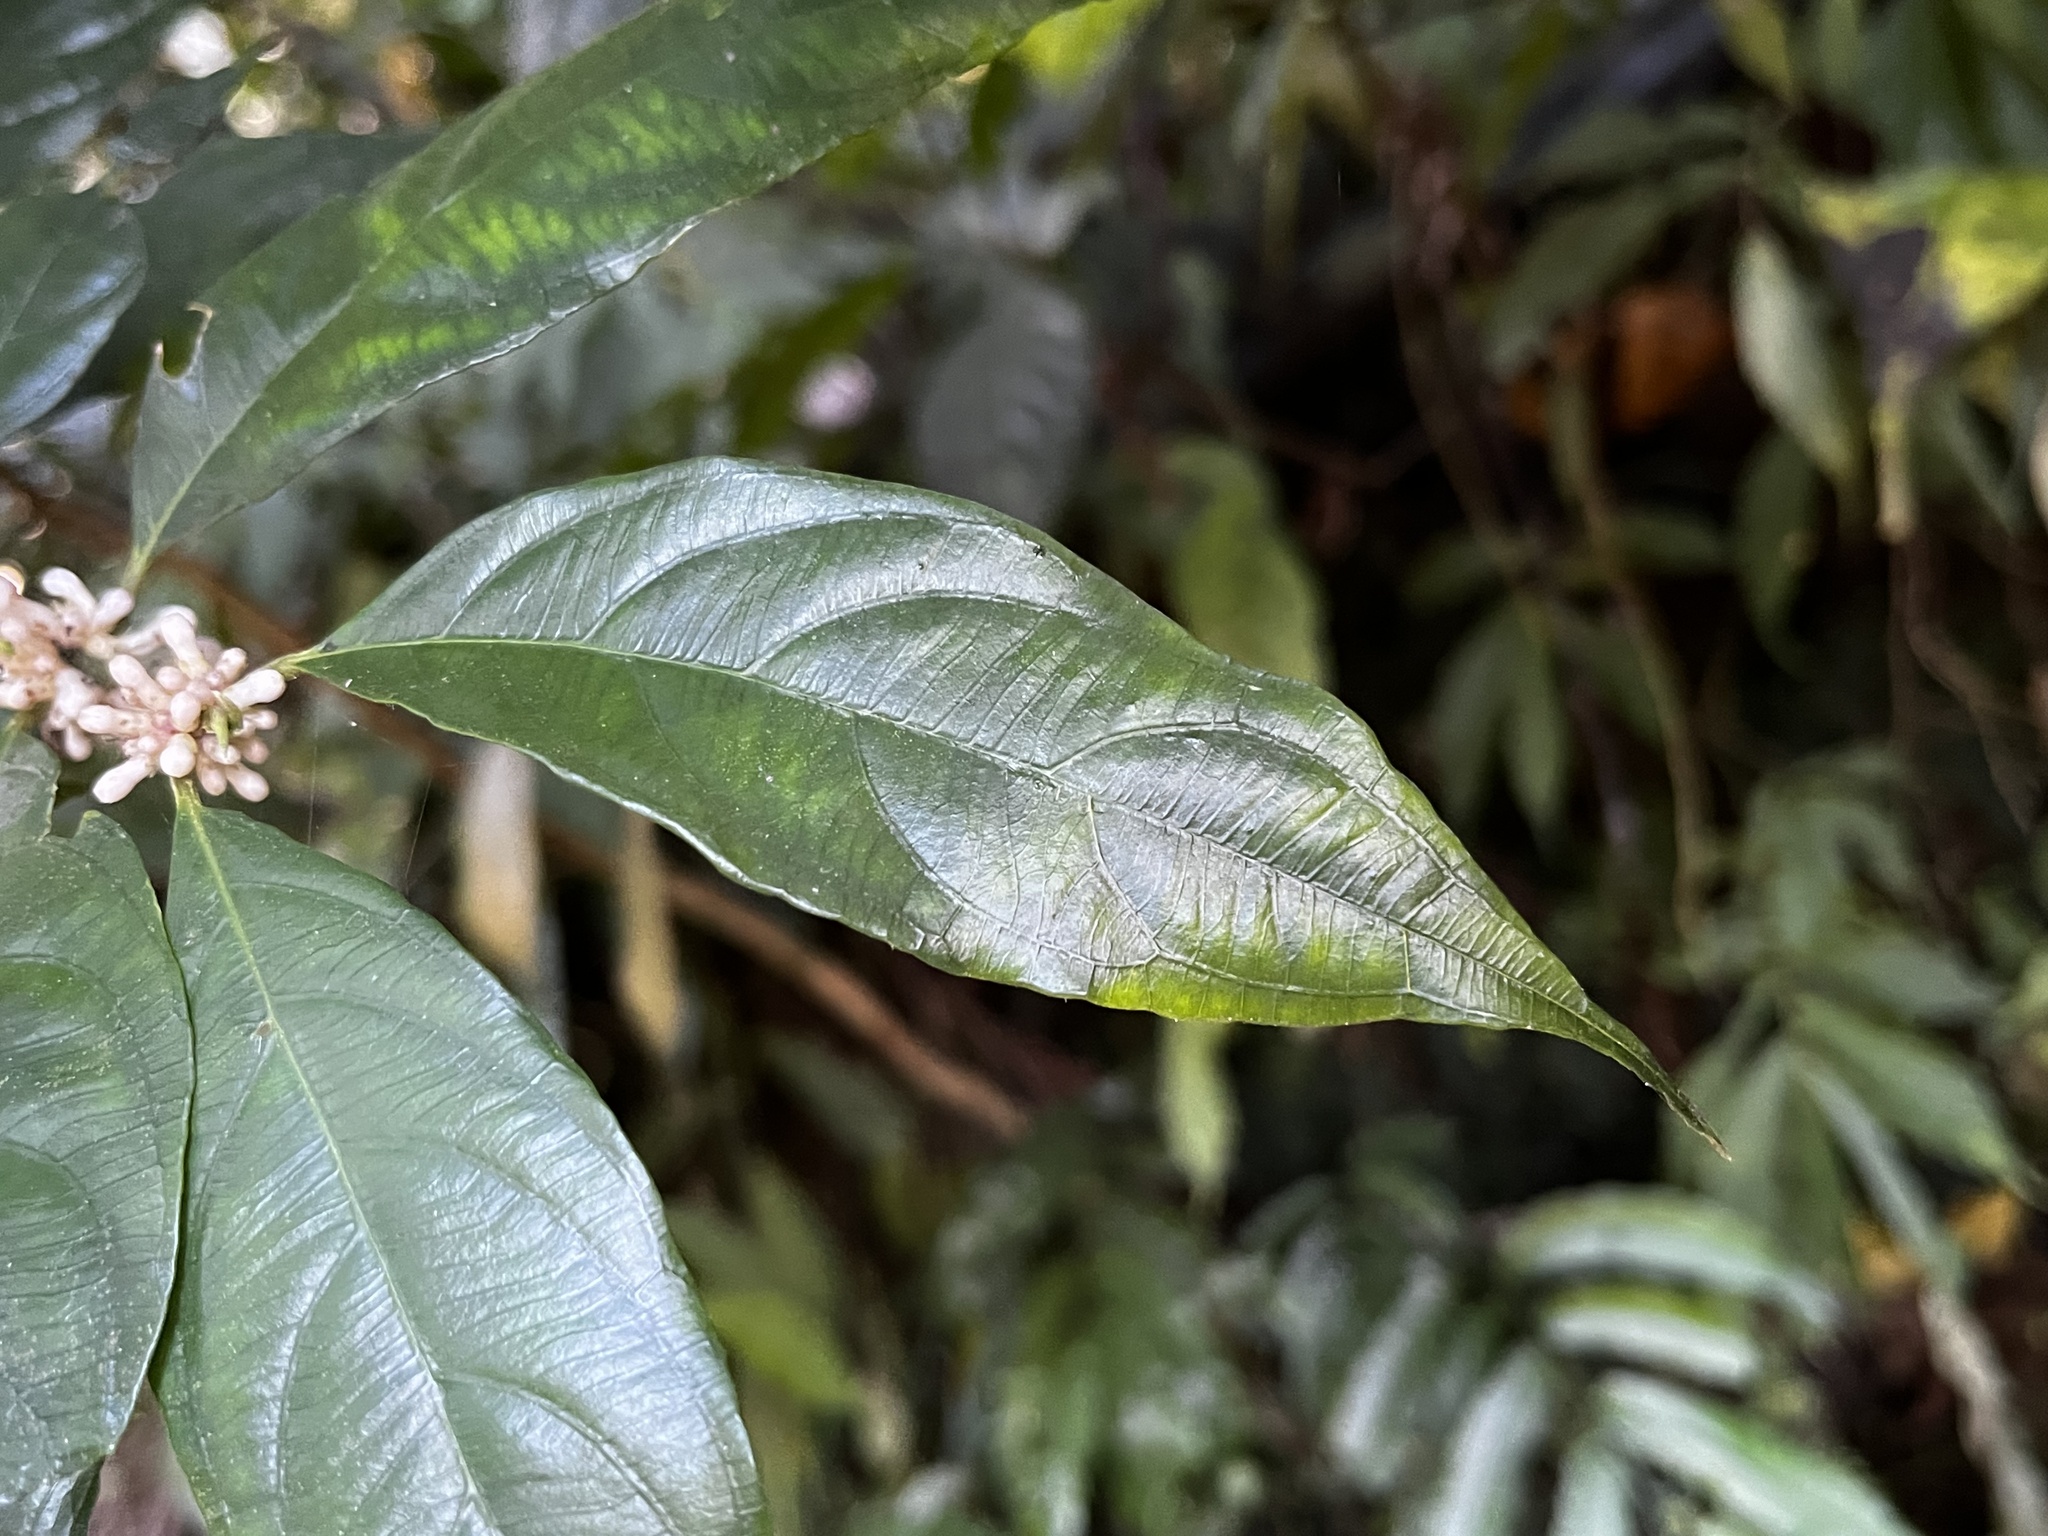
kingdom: Plantae
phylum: Tracheophyta
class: Magnoliopsida
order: Gentianales
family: Rubiaceae
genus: Lasianthus
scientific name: Lasianthus fordii
